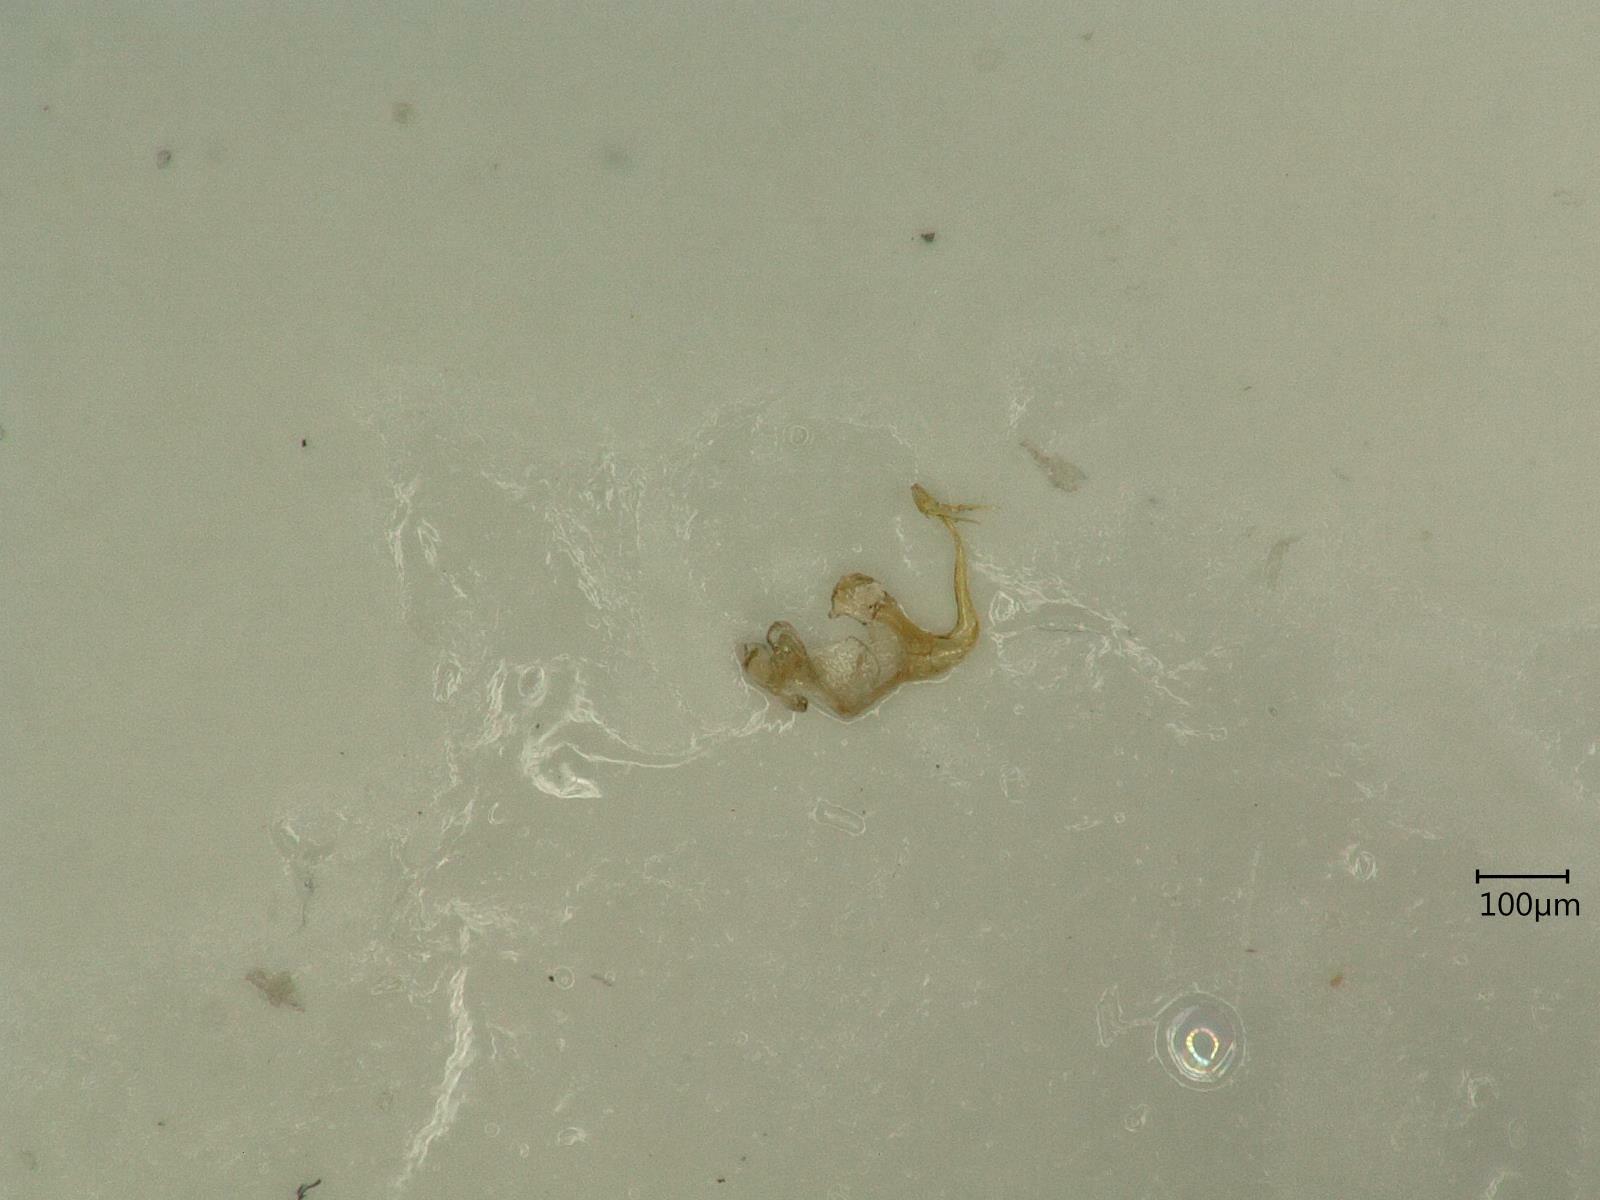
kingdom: Animalia
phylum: Arthropoda
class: Insecta
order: Hemiptera
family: Cicadellidae
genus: Eupteryx
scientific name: Eupteryx cyclops
